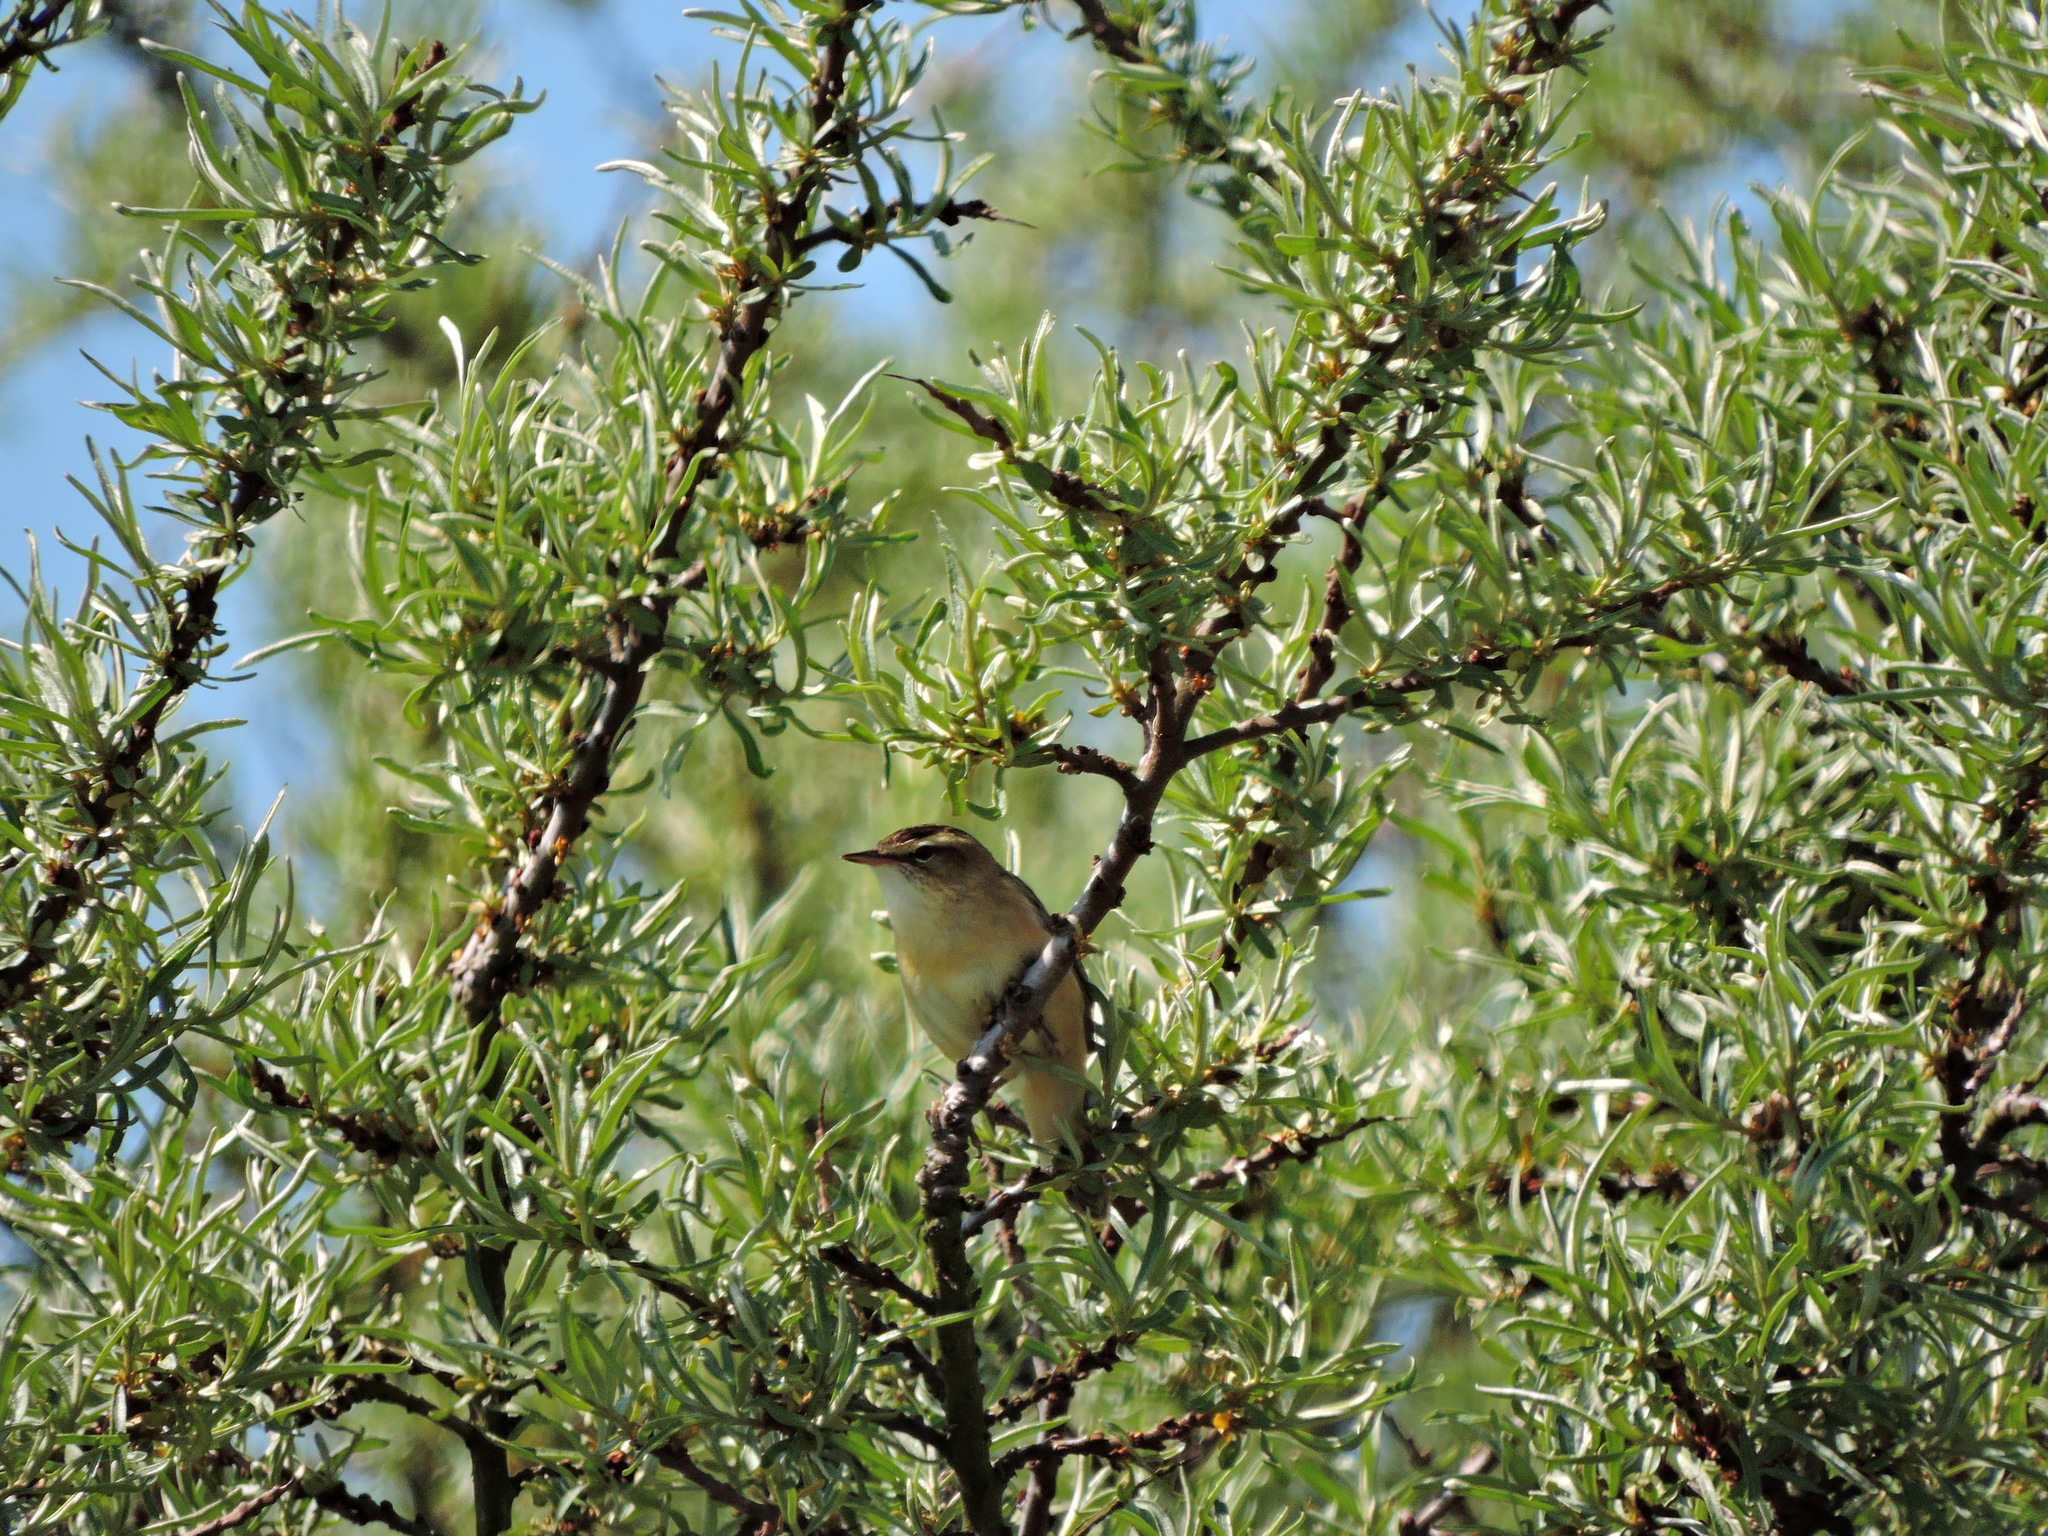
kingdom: Animalia
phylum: Chordata
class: Aves
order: Passeriformes
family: Acrocephalidae
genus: Acrocephalus
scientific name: Acrocephalus schoenobaenus
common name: Sedge warbler
